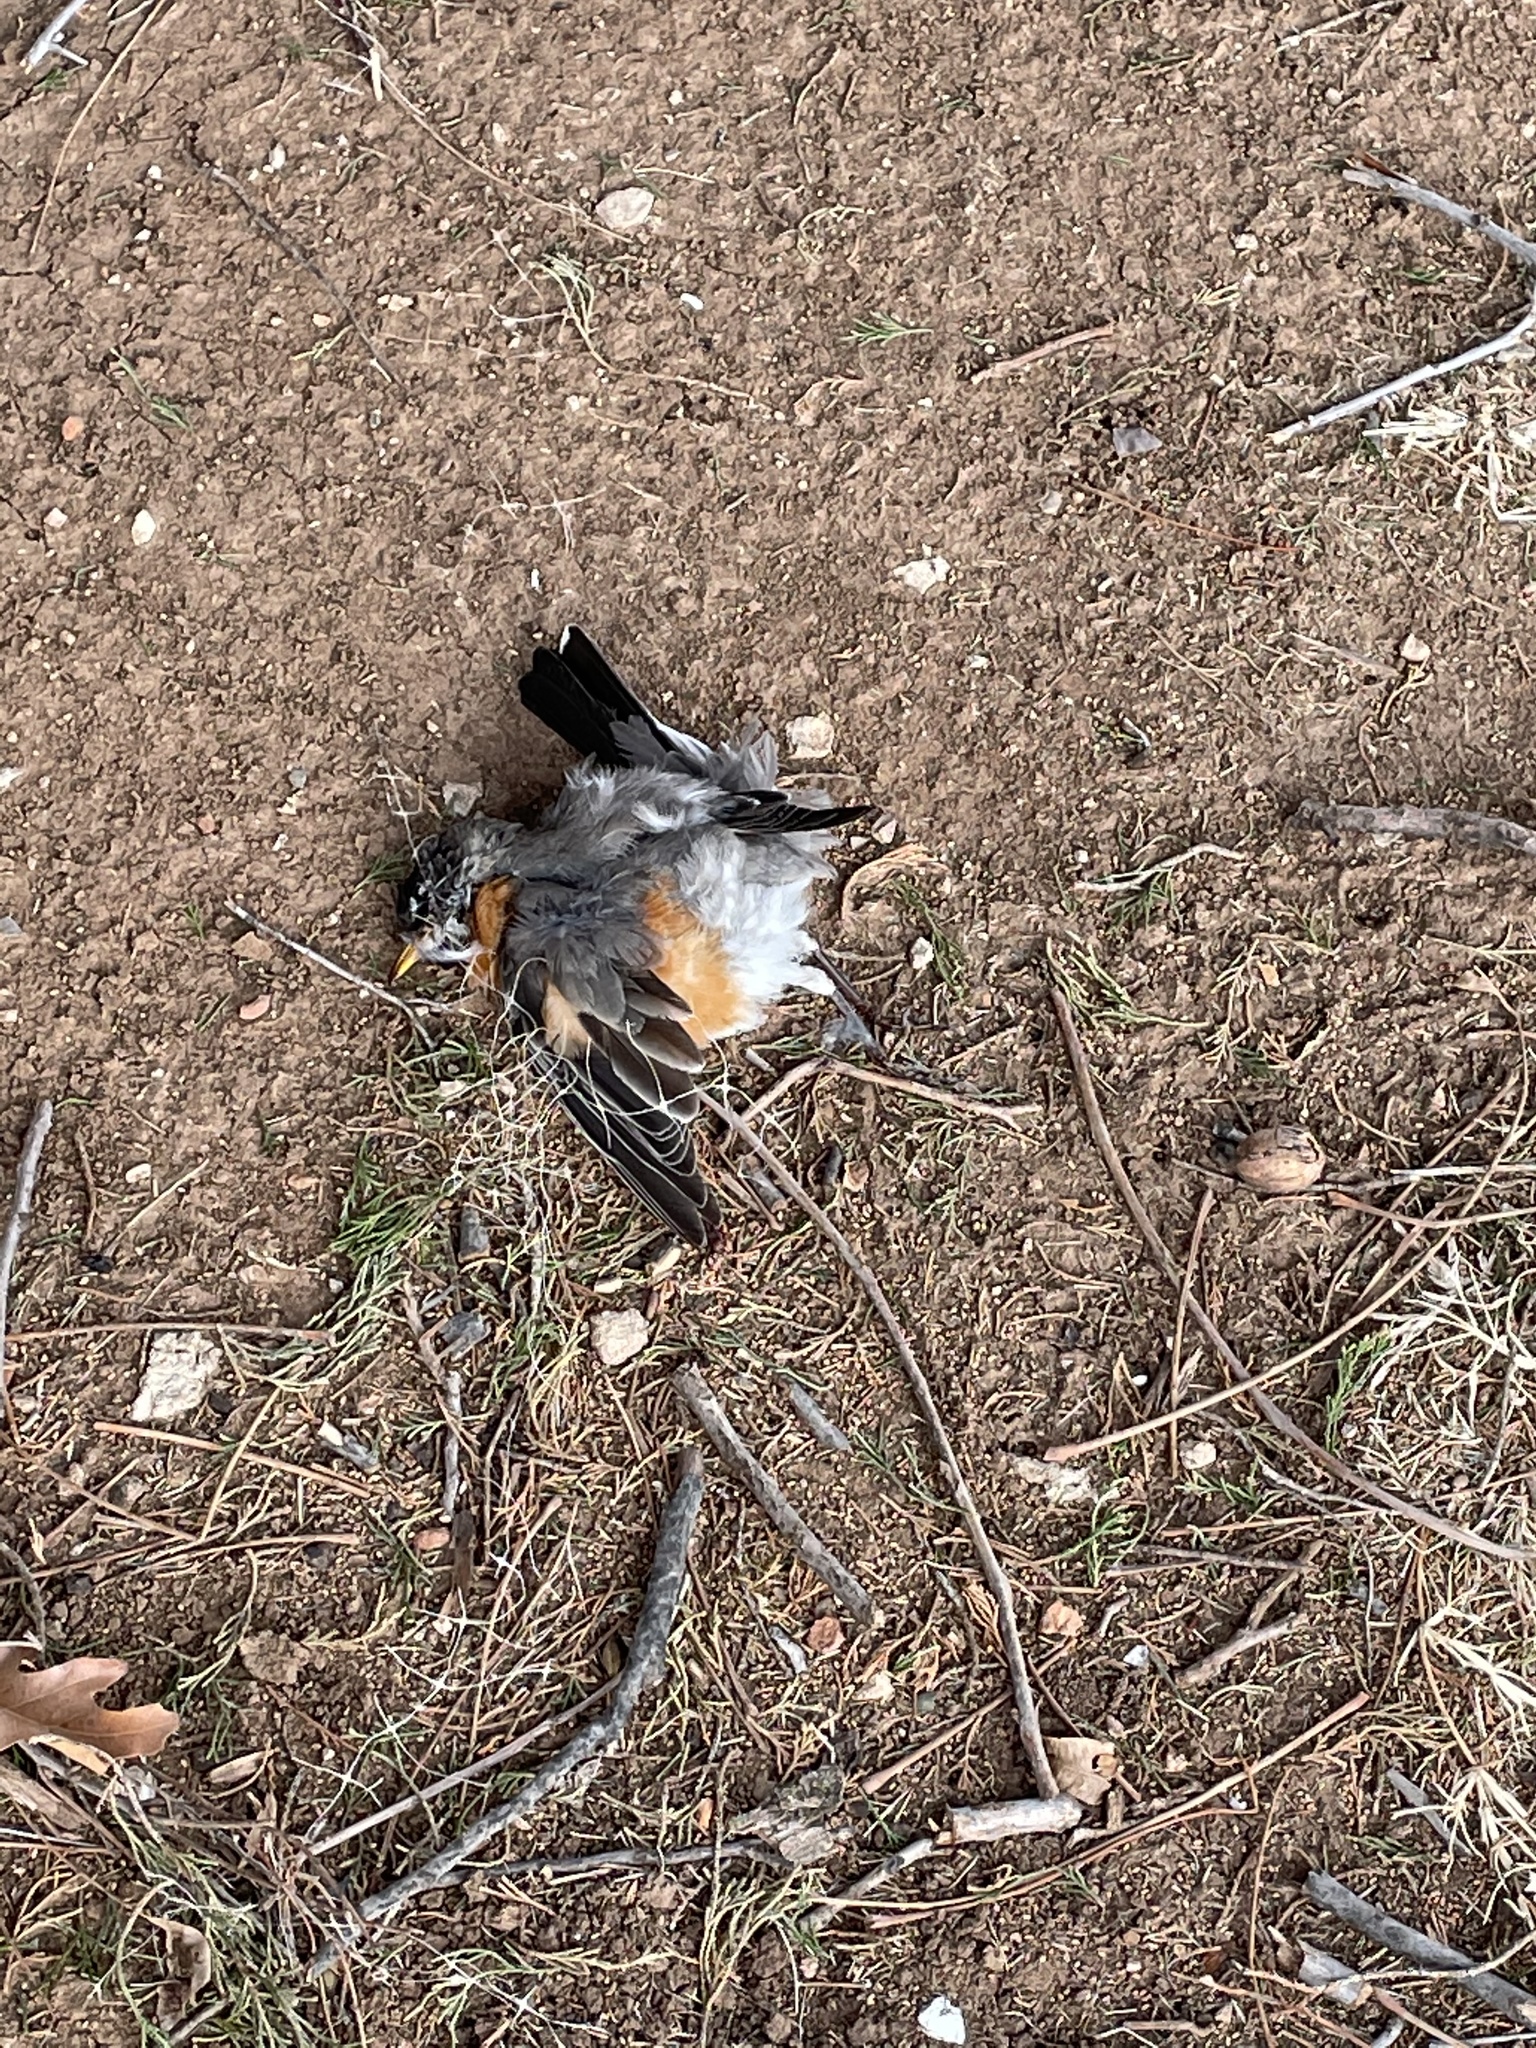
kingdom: Animalia
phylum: Chordata
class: Aves
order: Passeriformes
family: Turdidae
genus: Turdus
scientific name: Turdus migratorius
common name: American robin
